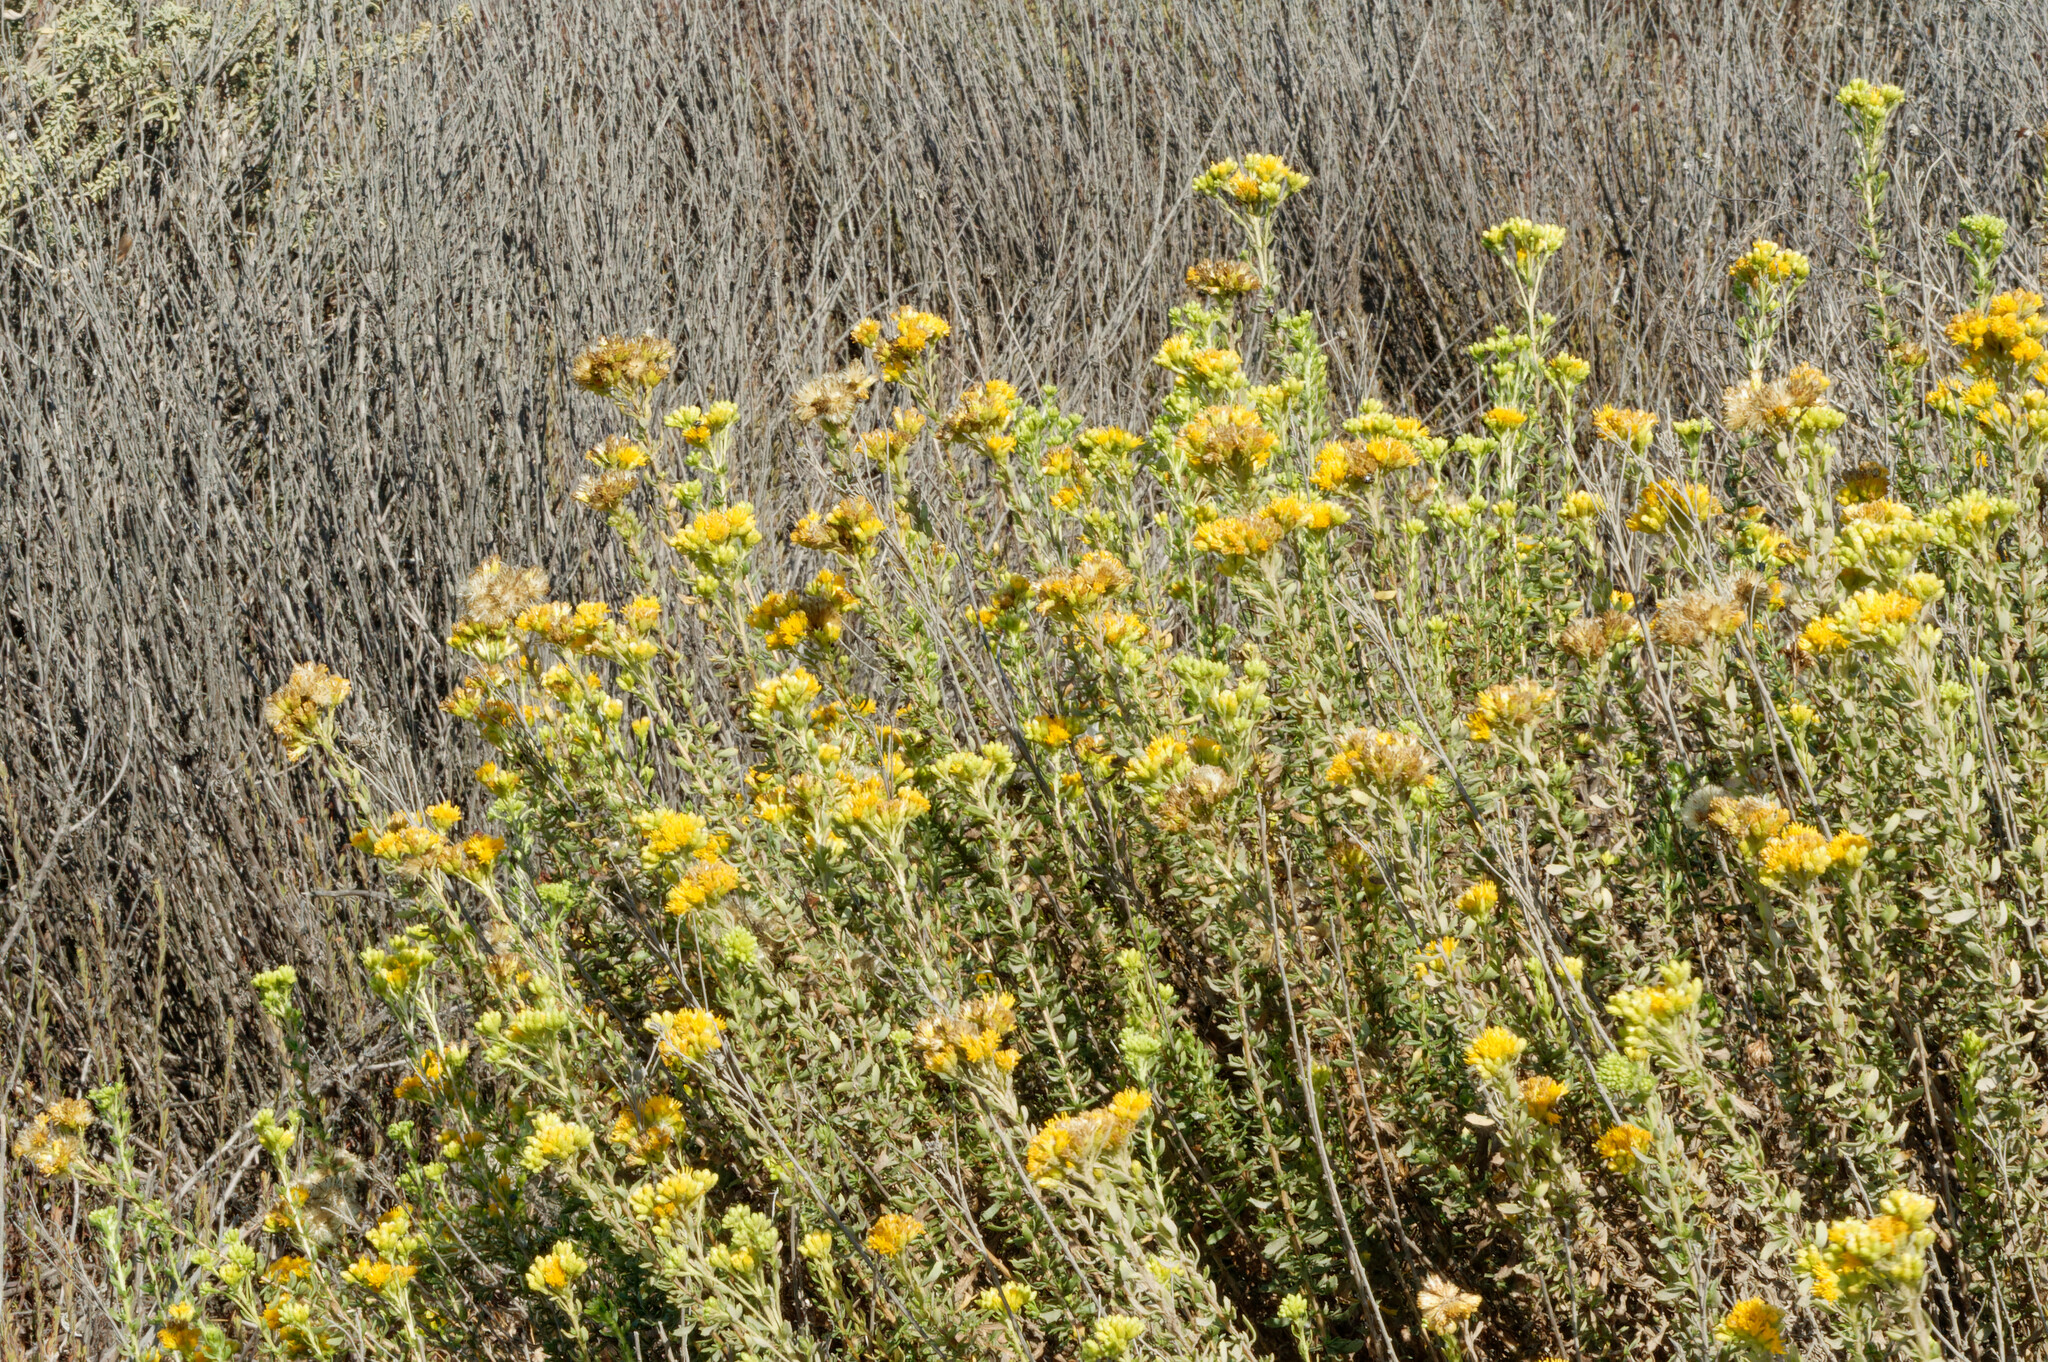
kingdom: Plantae
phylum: Tracheophyta
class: Magnoliopsida
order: Asterales
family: Asteraceae
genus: Isocoma
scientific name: Isocoma menziesii
